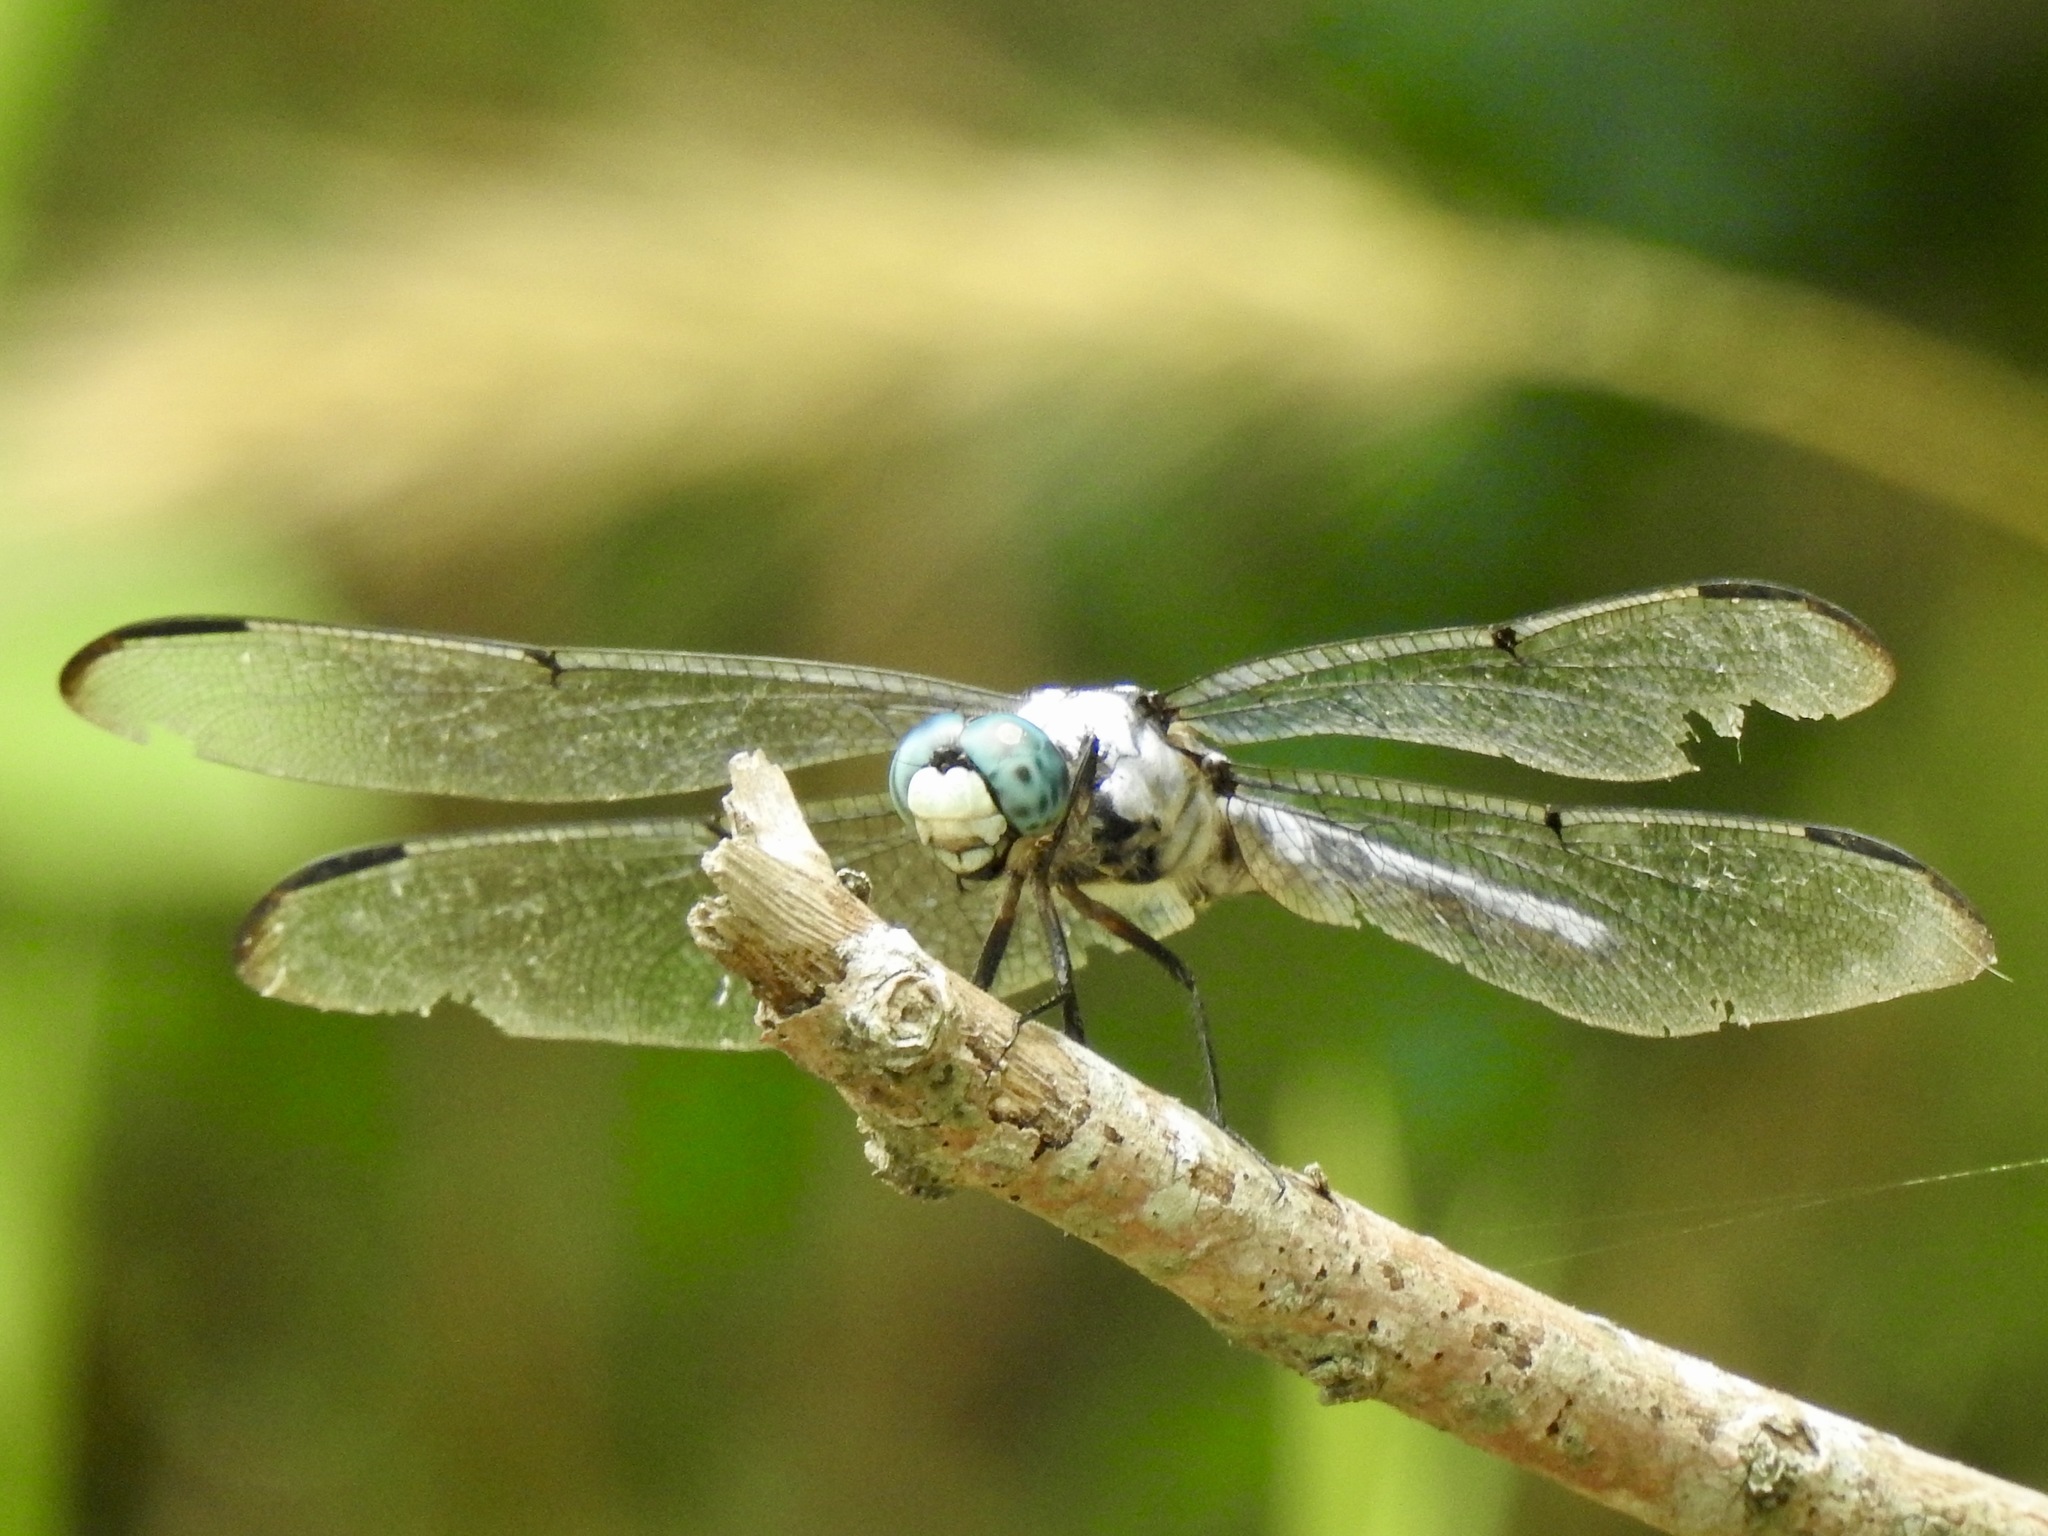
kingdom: Animalia
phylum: Arthropoda
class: Insecta
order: Odonata
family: Libellulidae
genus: Libellula
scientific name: Libellula vibrans
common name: Great blue skimmer
